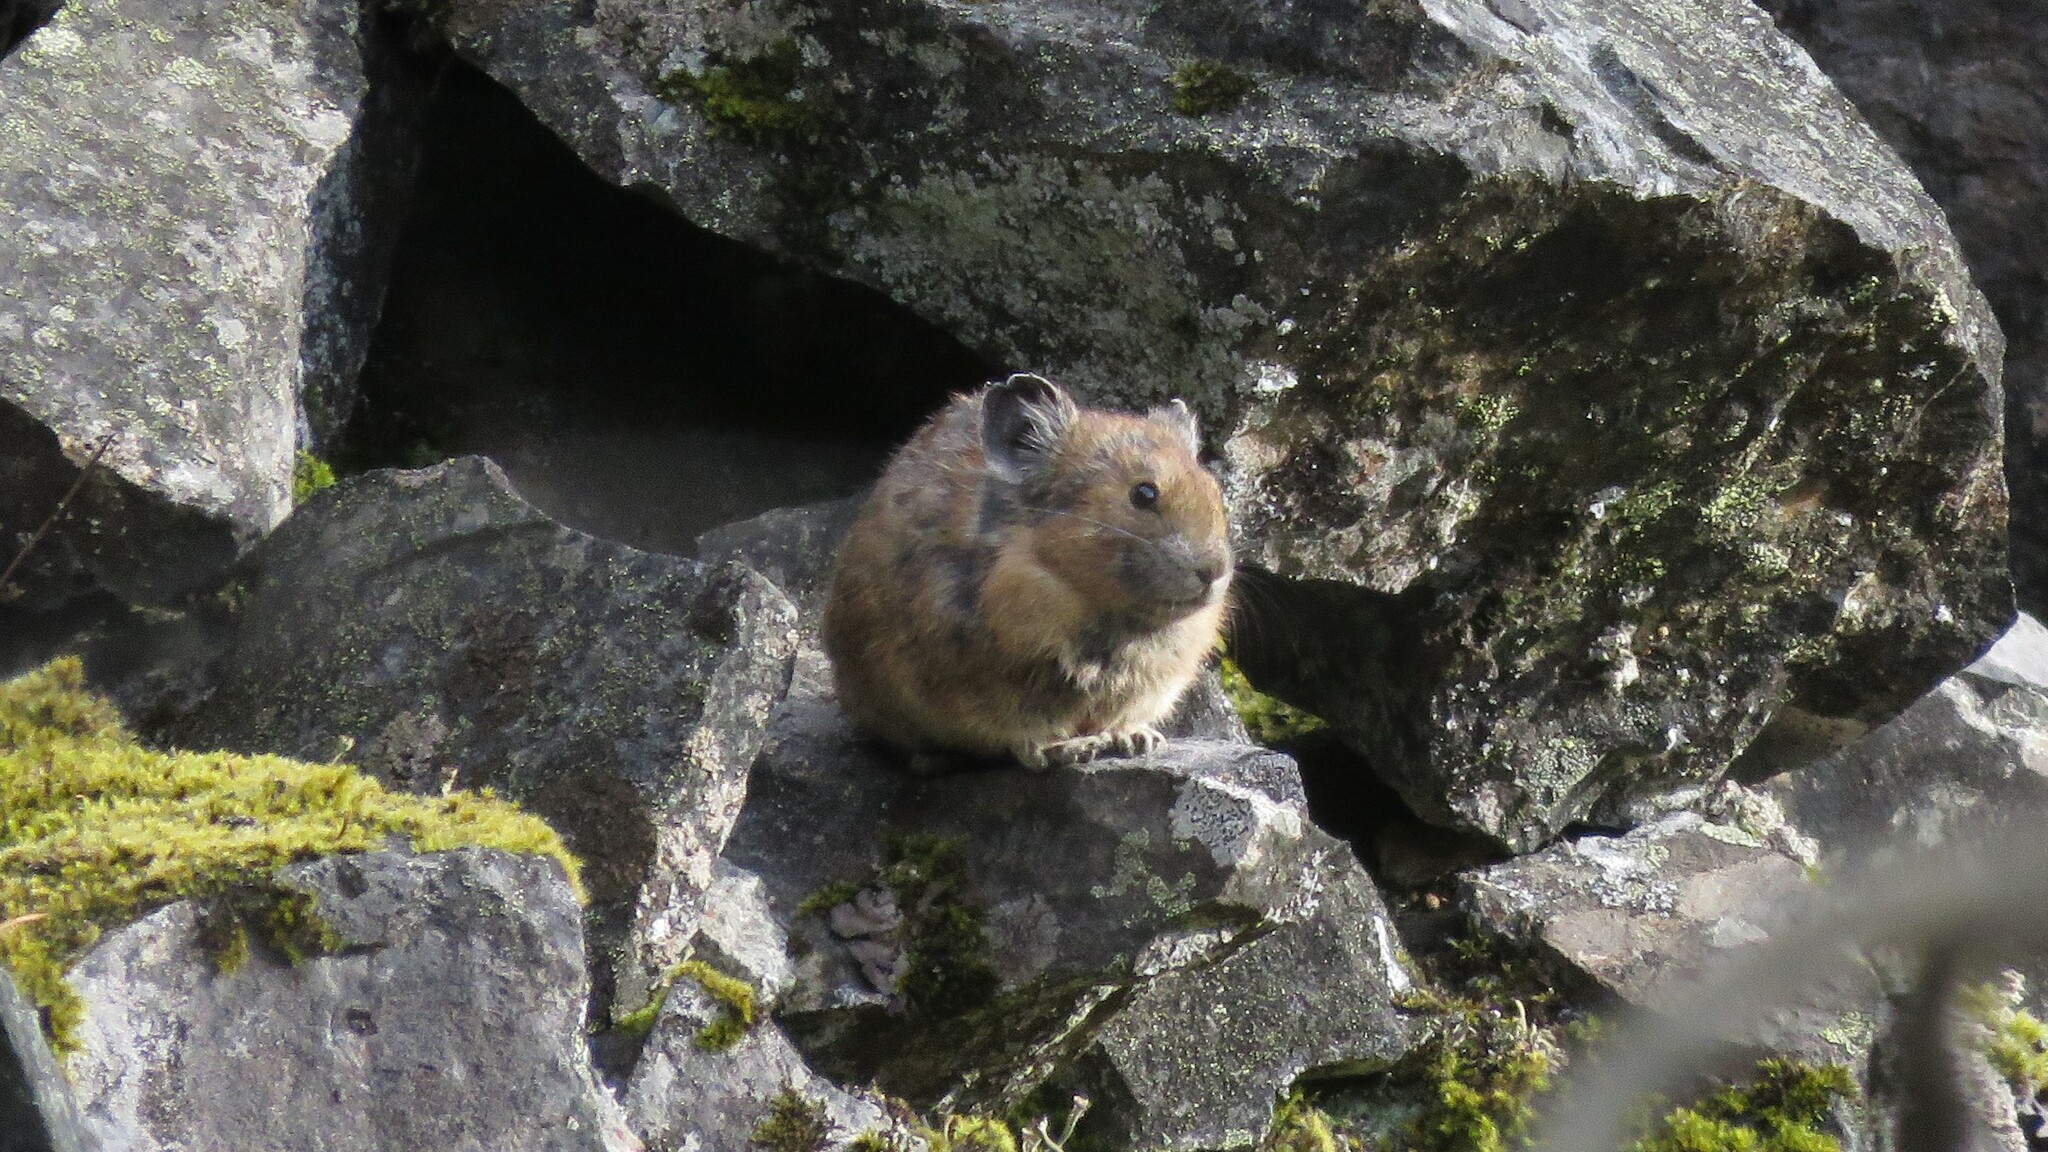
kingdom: Animalia
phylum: Chordata
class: Mammalia
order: Lagomorpha
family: Ochotonidae
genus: Ochotona
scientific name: Ochotona princeps
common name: American pika
